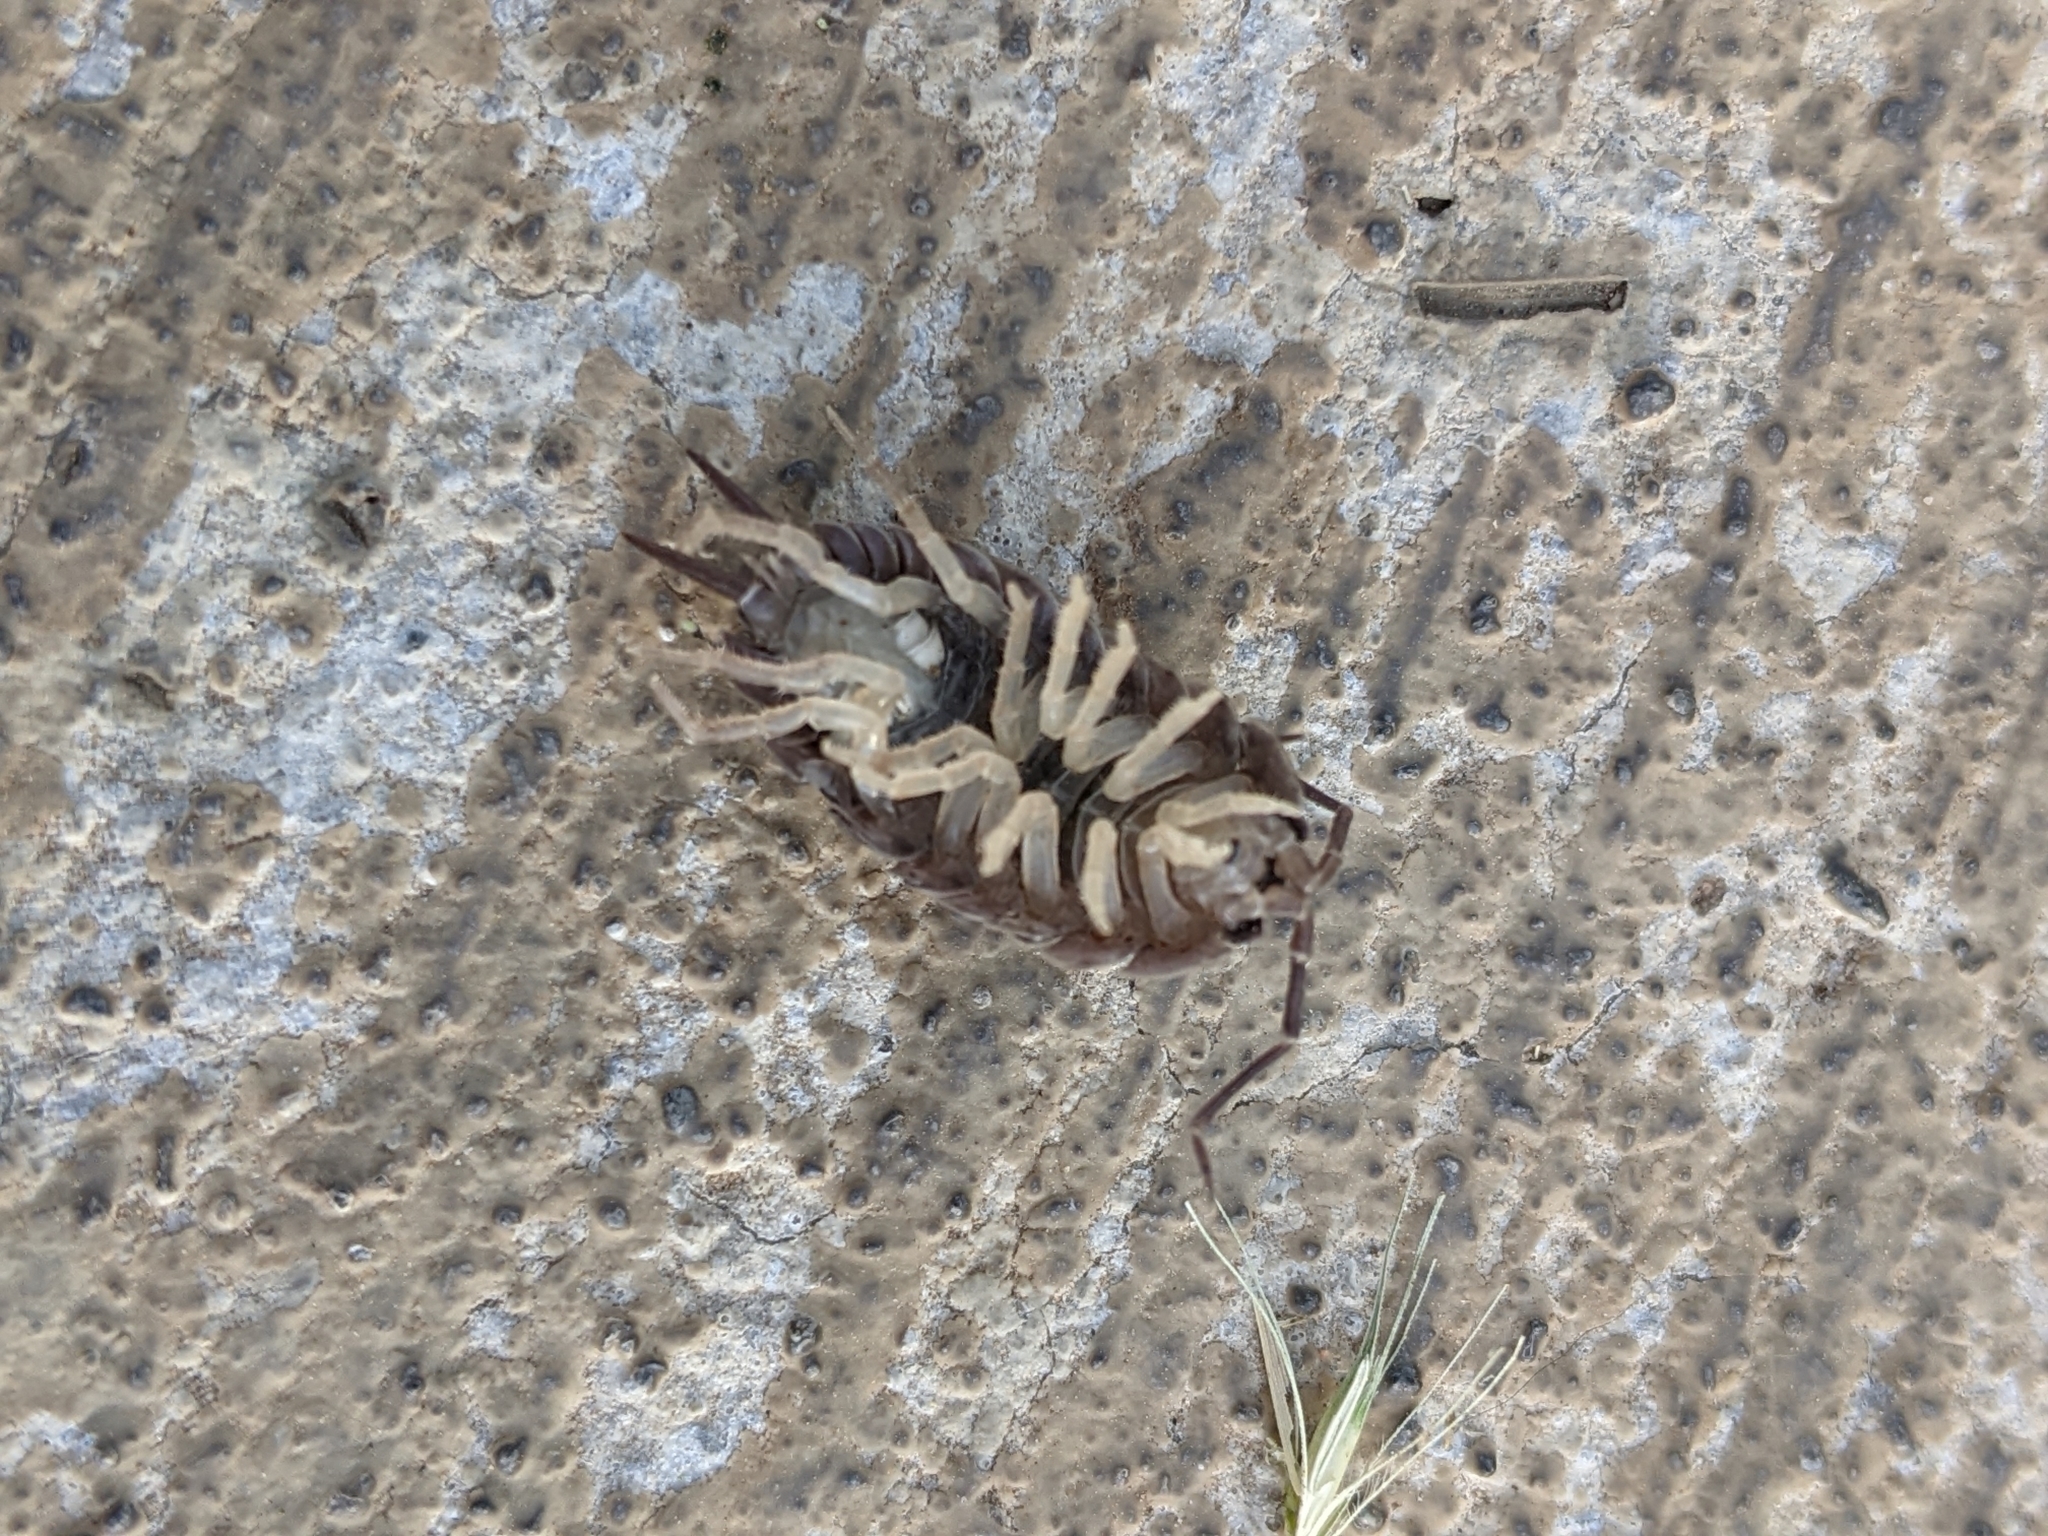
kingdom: Animalia
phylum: Arthropoda
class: Malacostraca
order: Isopoda
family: Porcellionidae
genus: Porcellio
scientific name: Porcellio laevis
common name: Swift woodlouse
